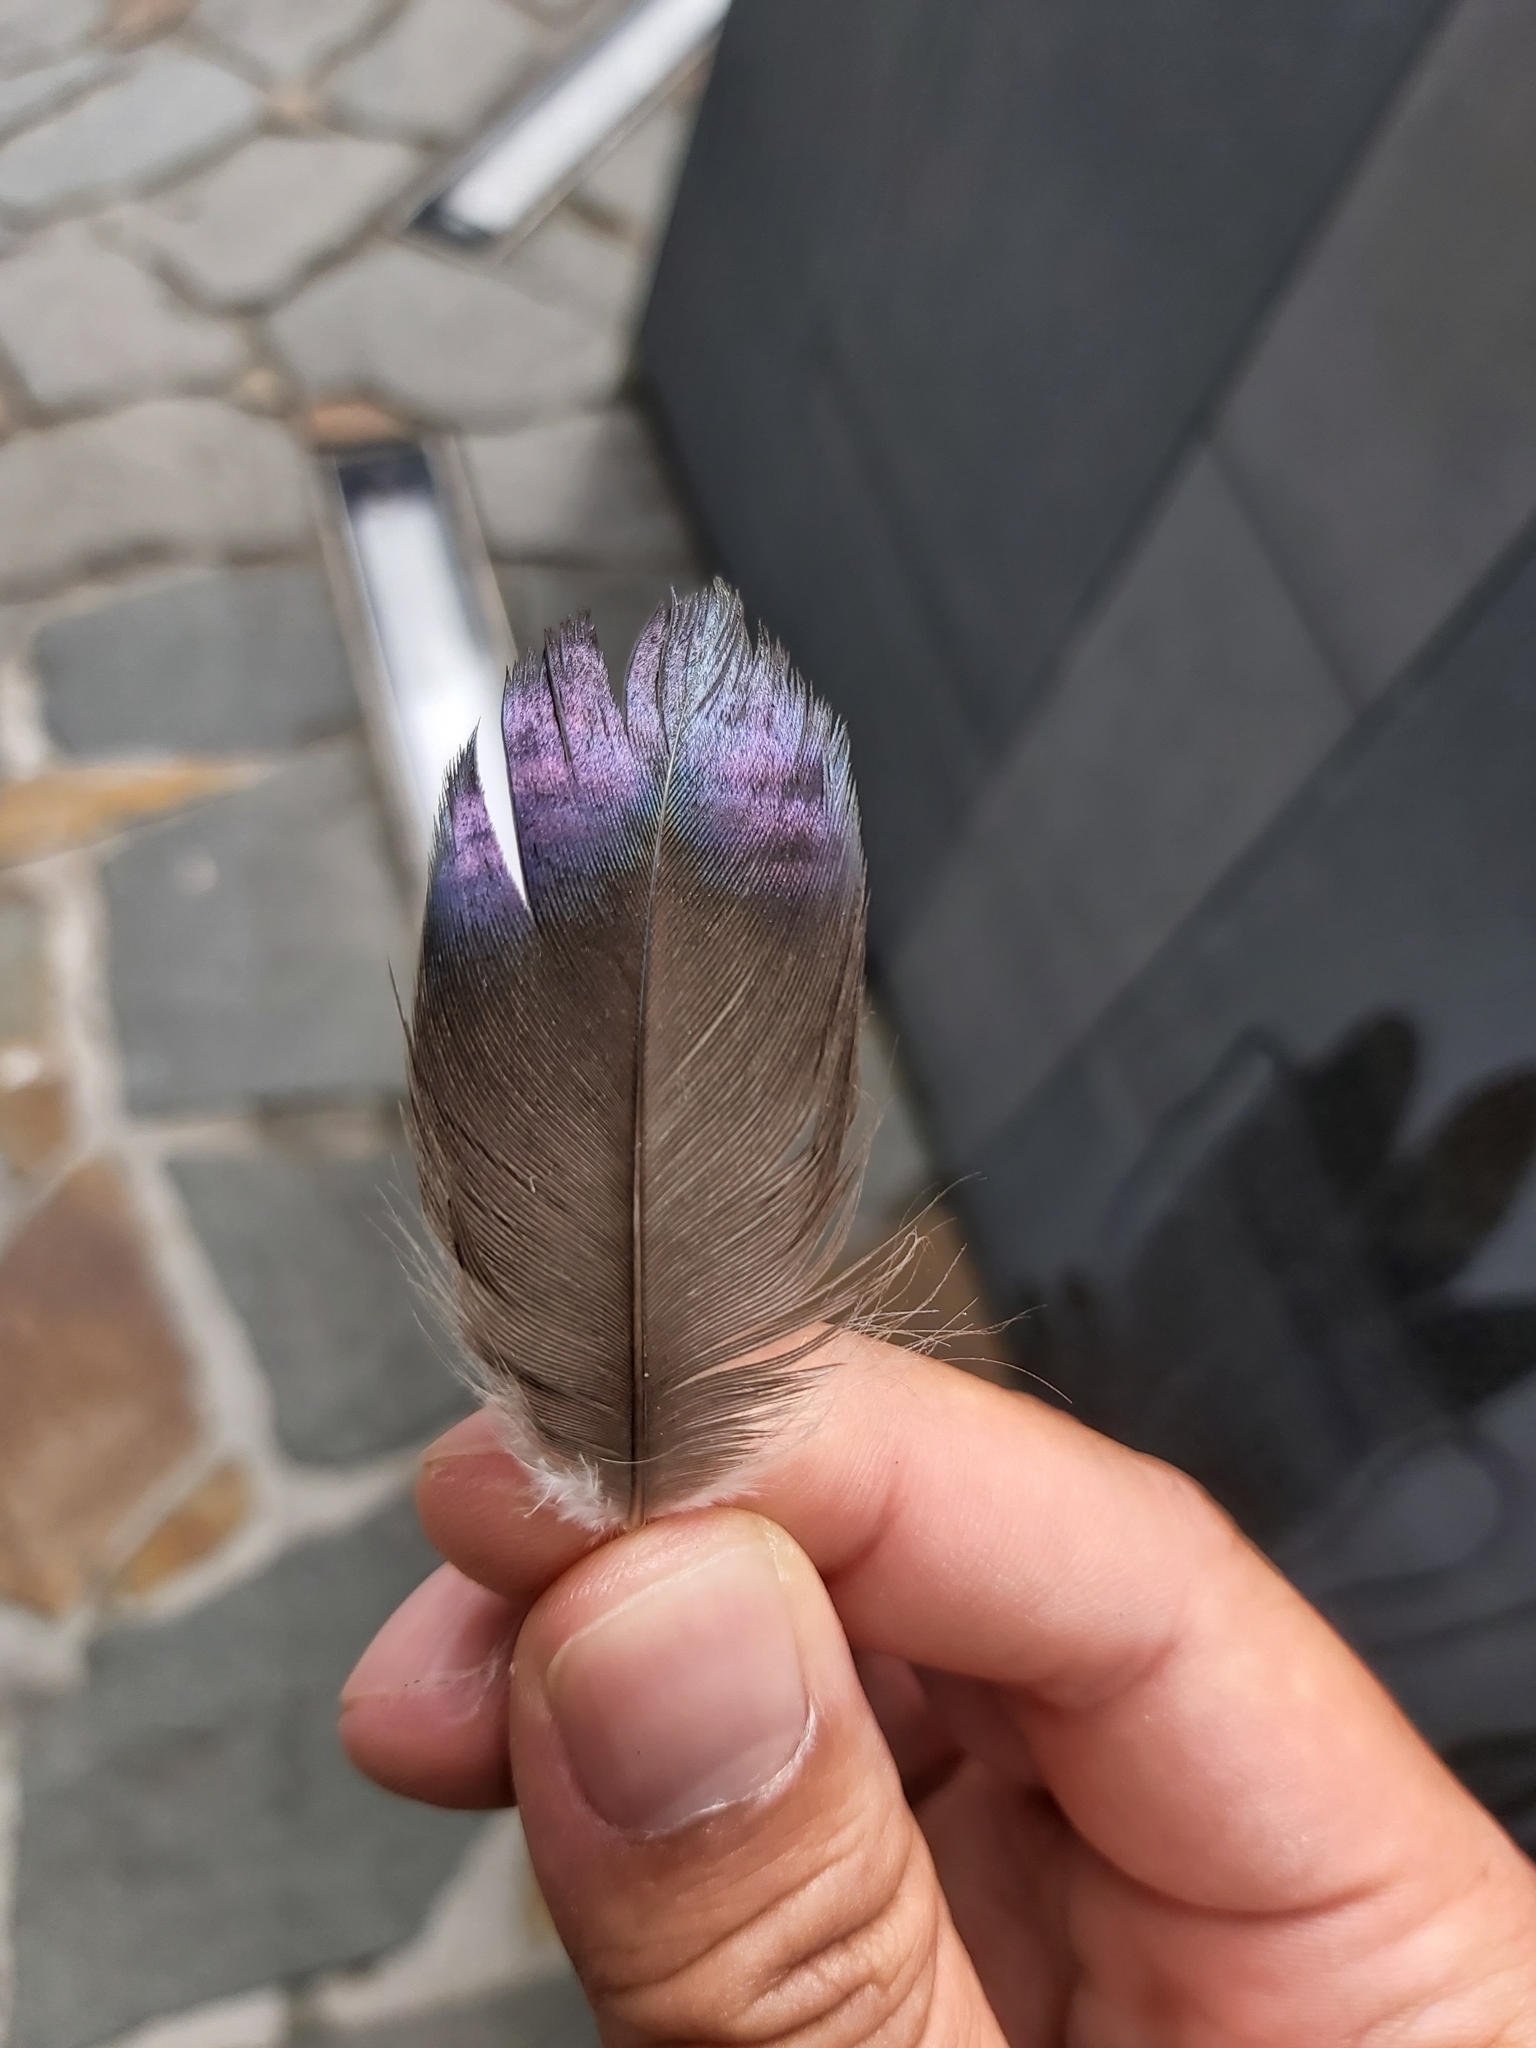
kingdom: Animalia
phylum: Chordata
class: Aves
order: Pelecaniformes
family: Threskiornithidae
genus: Threskiornis
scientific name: Threskiornis spinicollis
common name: Straw-necked ibis
